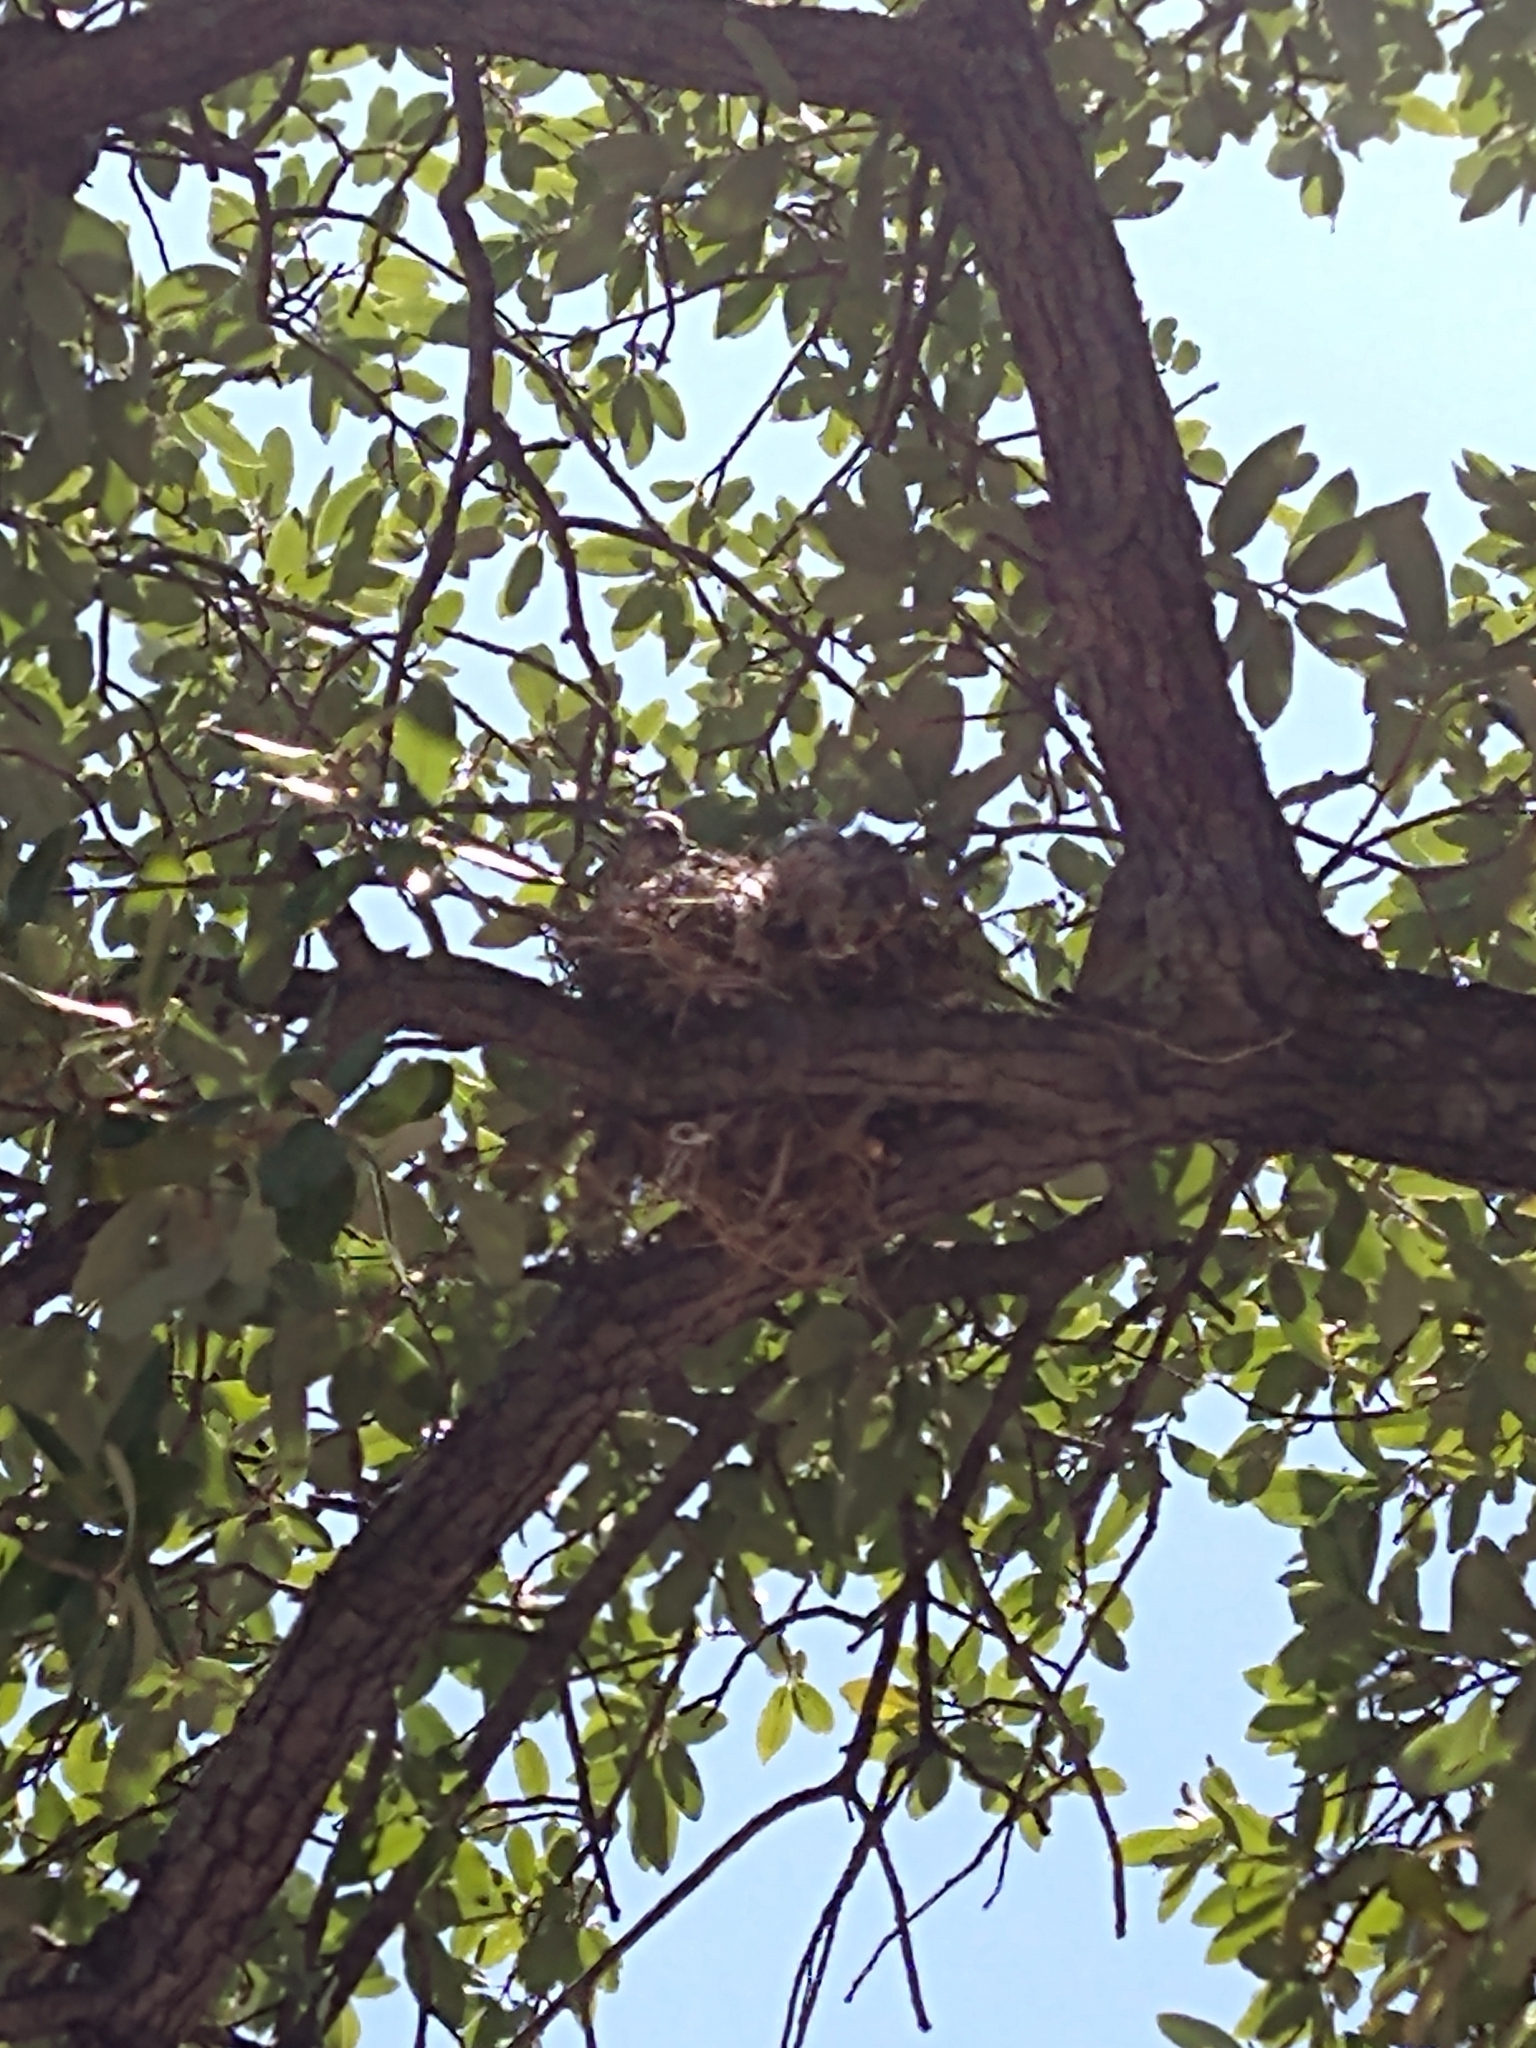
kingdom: Animalia
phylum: Chordata
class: Aves
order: Passeriformes
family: Tyrannidae
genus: Tyrannus
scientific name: Tyrannus verticalis
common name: Western kingbird
